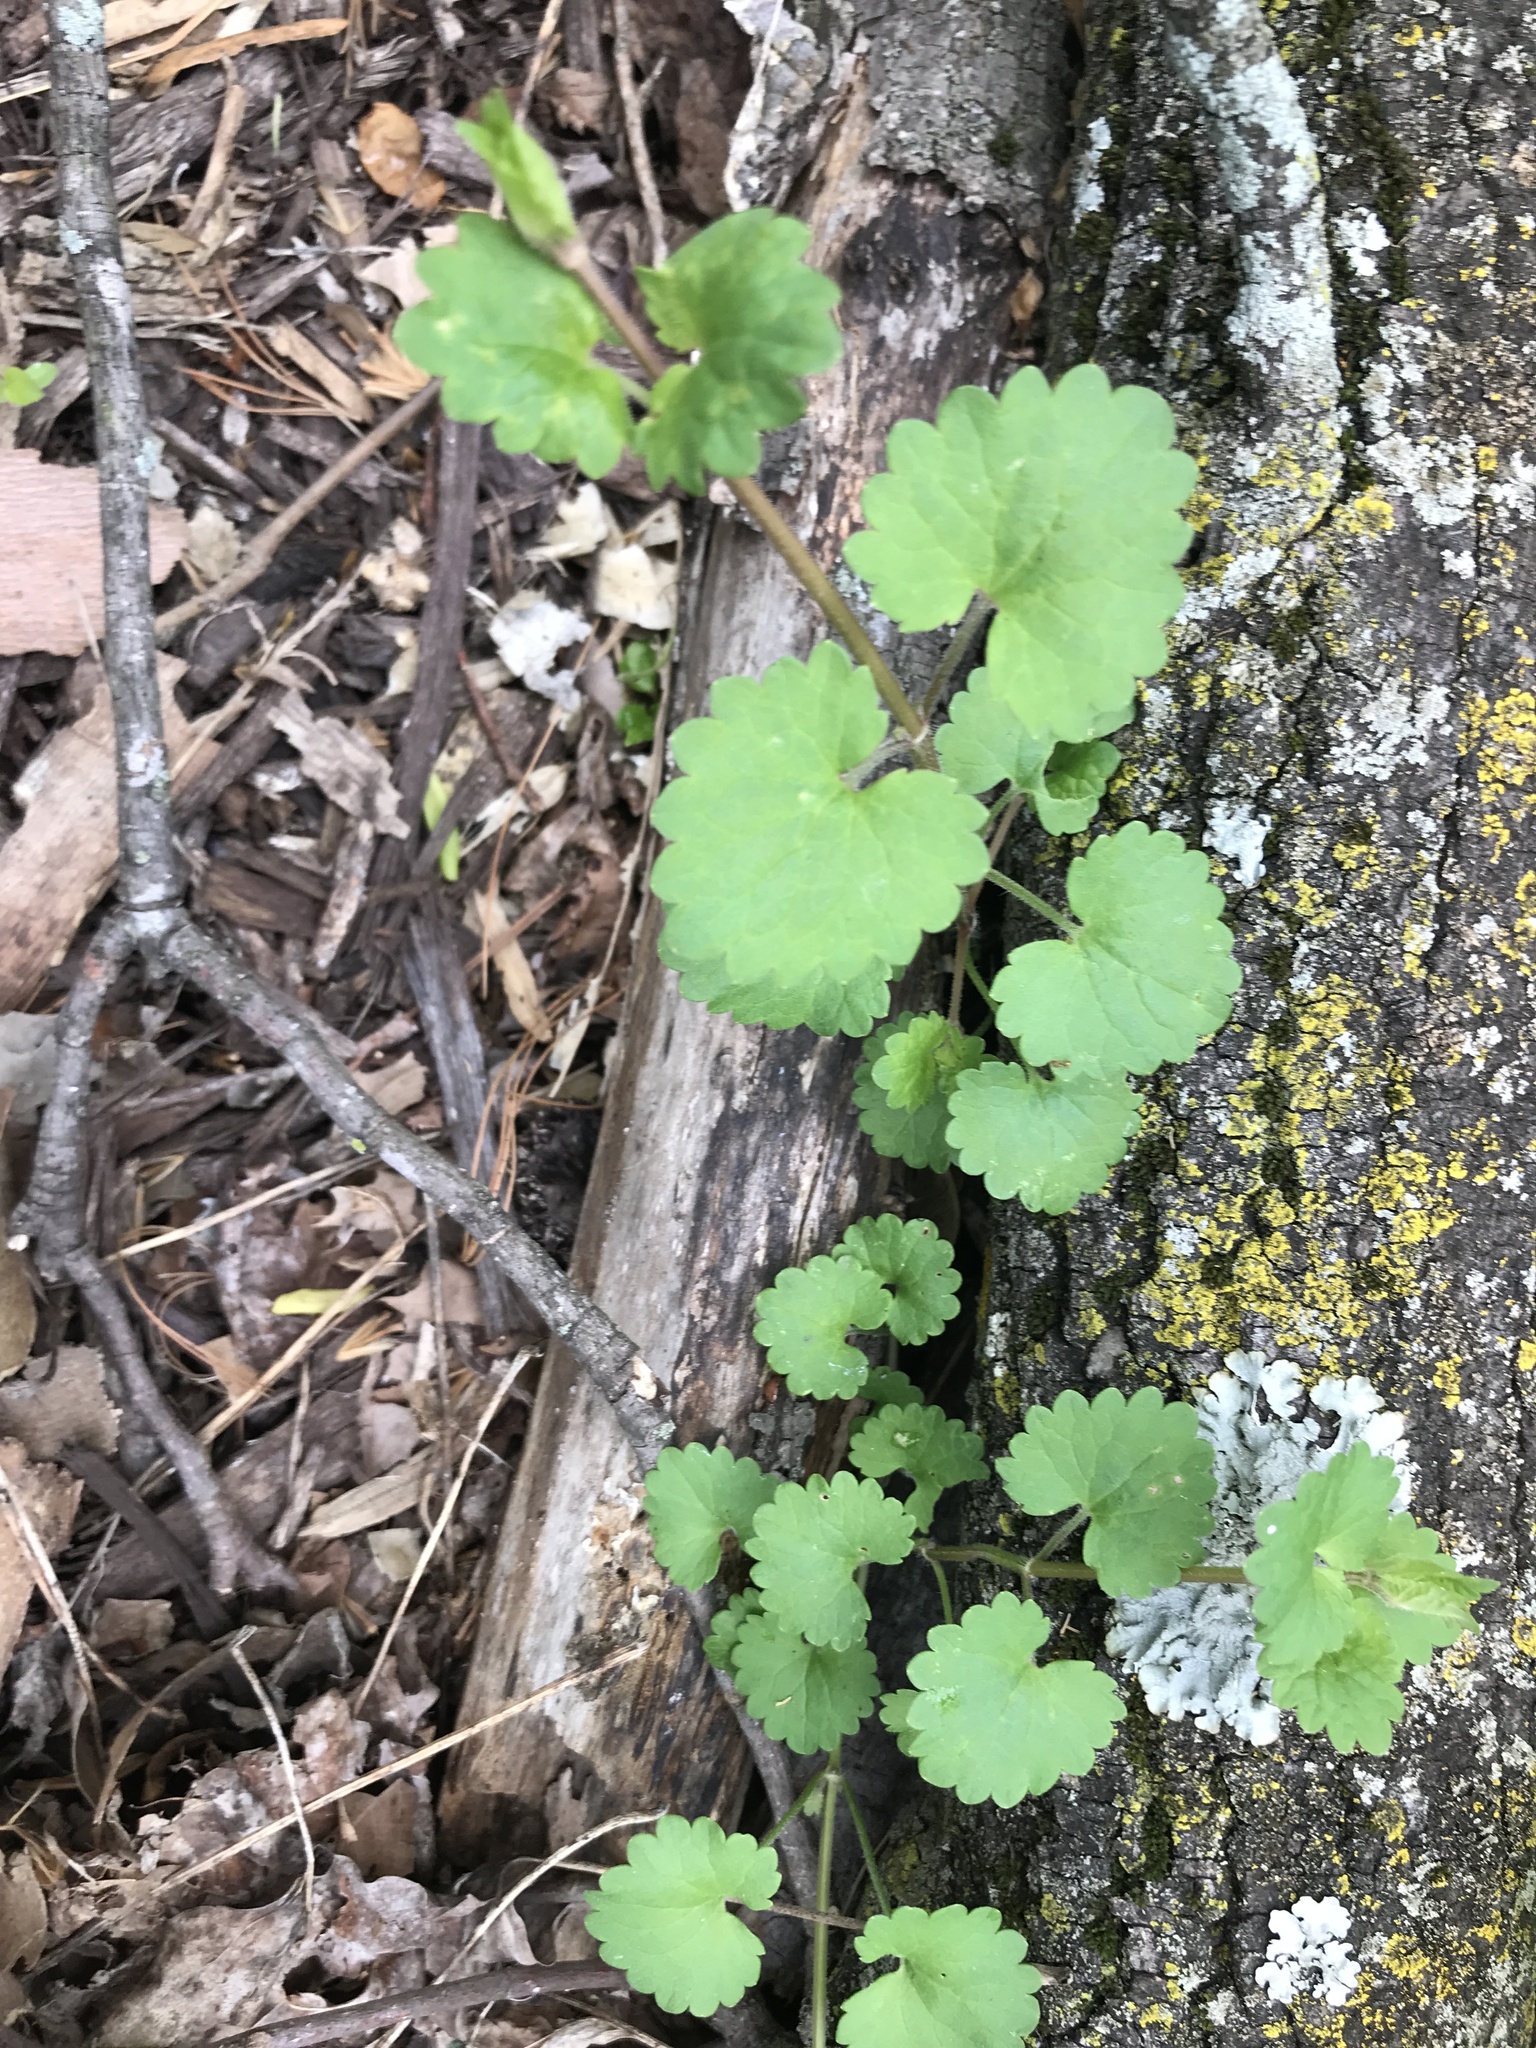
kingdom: Plantae
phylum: Tracheophyta
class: Magnoliopsida
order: Lamiales
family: Lamiaceae
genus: Glechoma
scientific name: Glechoma hederacea
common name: Ground ivy
